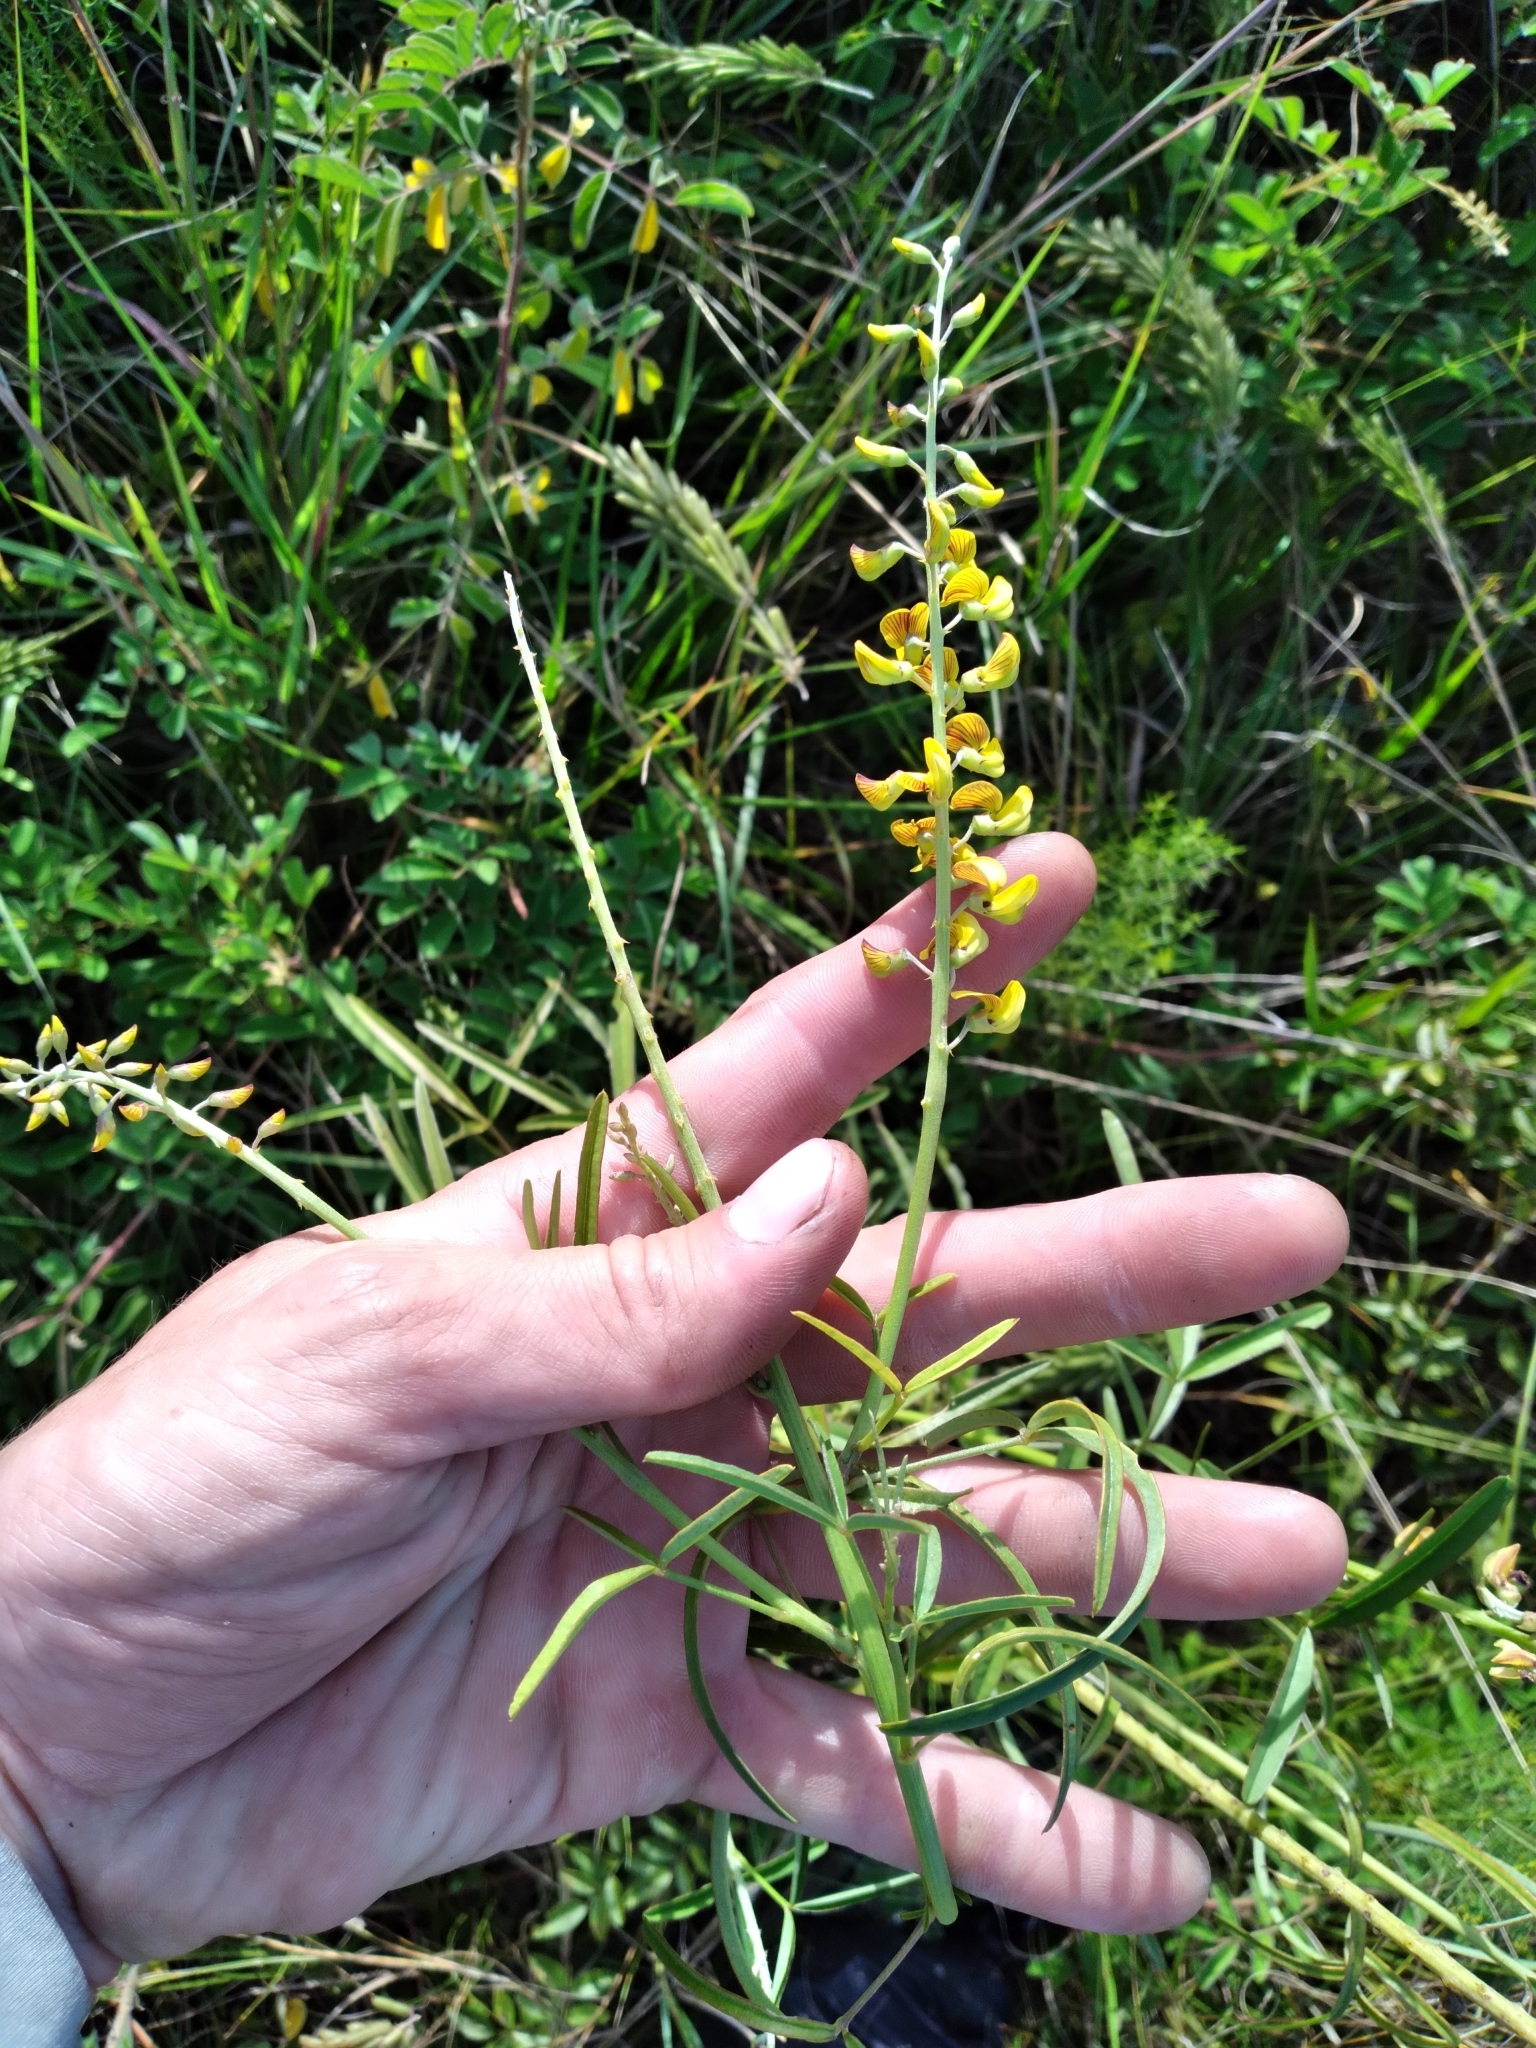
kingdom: Plantae
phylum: Tracheophyta
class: Magnoliopsida
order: Fabales
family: Fabaceae
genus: Crotalaria
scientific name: Crotalaria lanceolata
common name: Lanceleaf rattlebox
